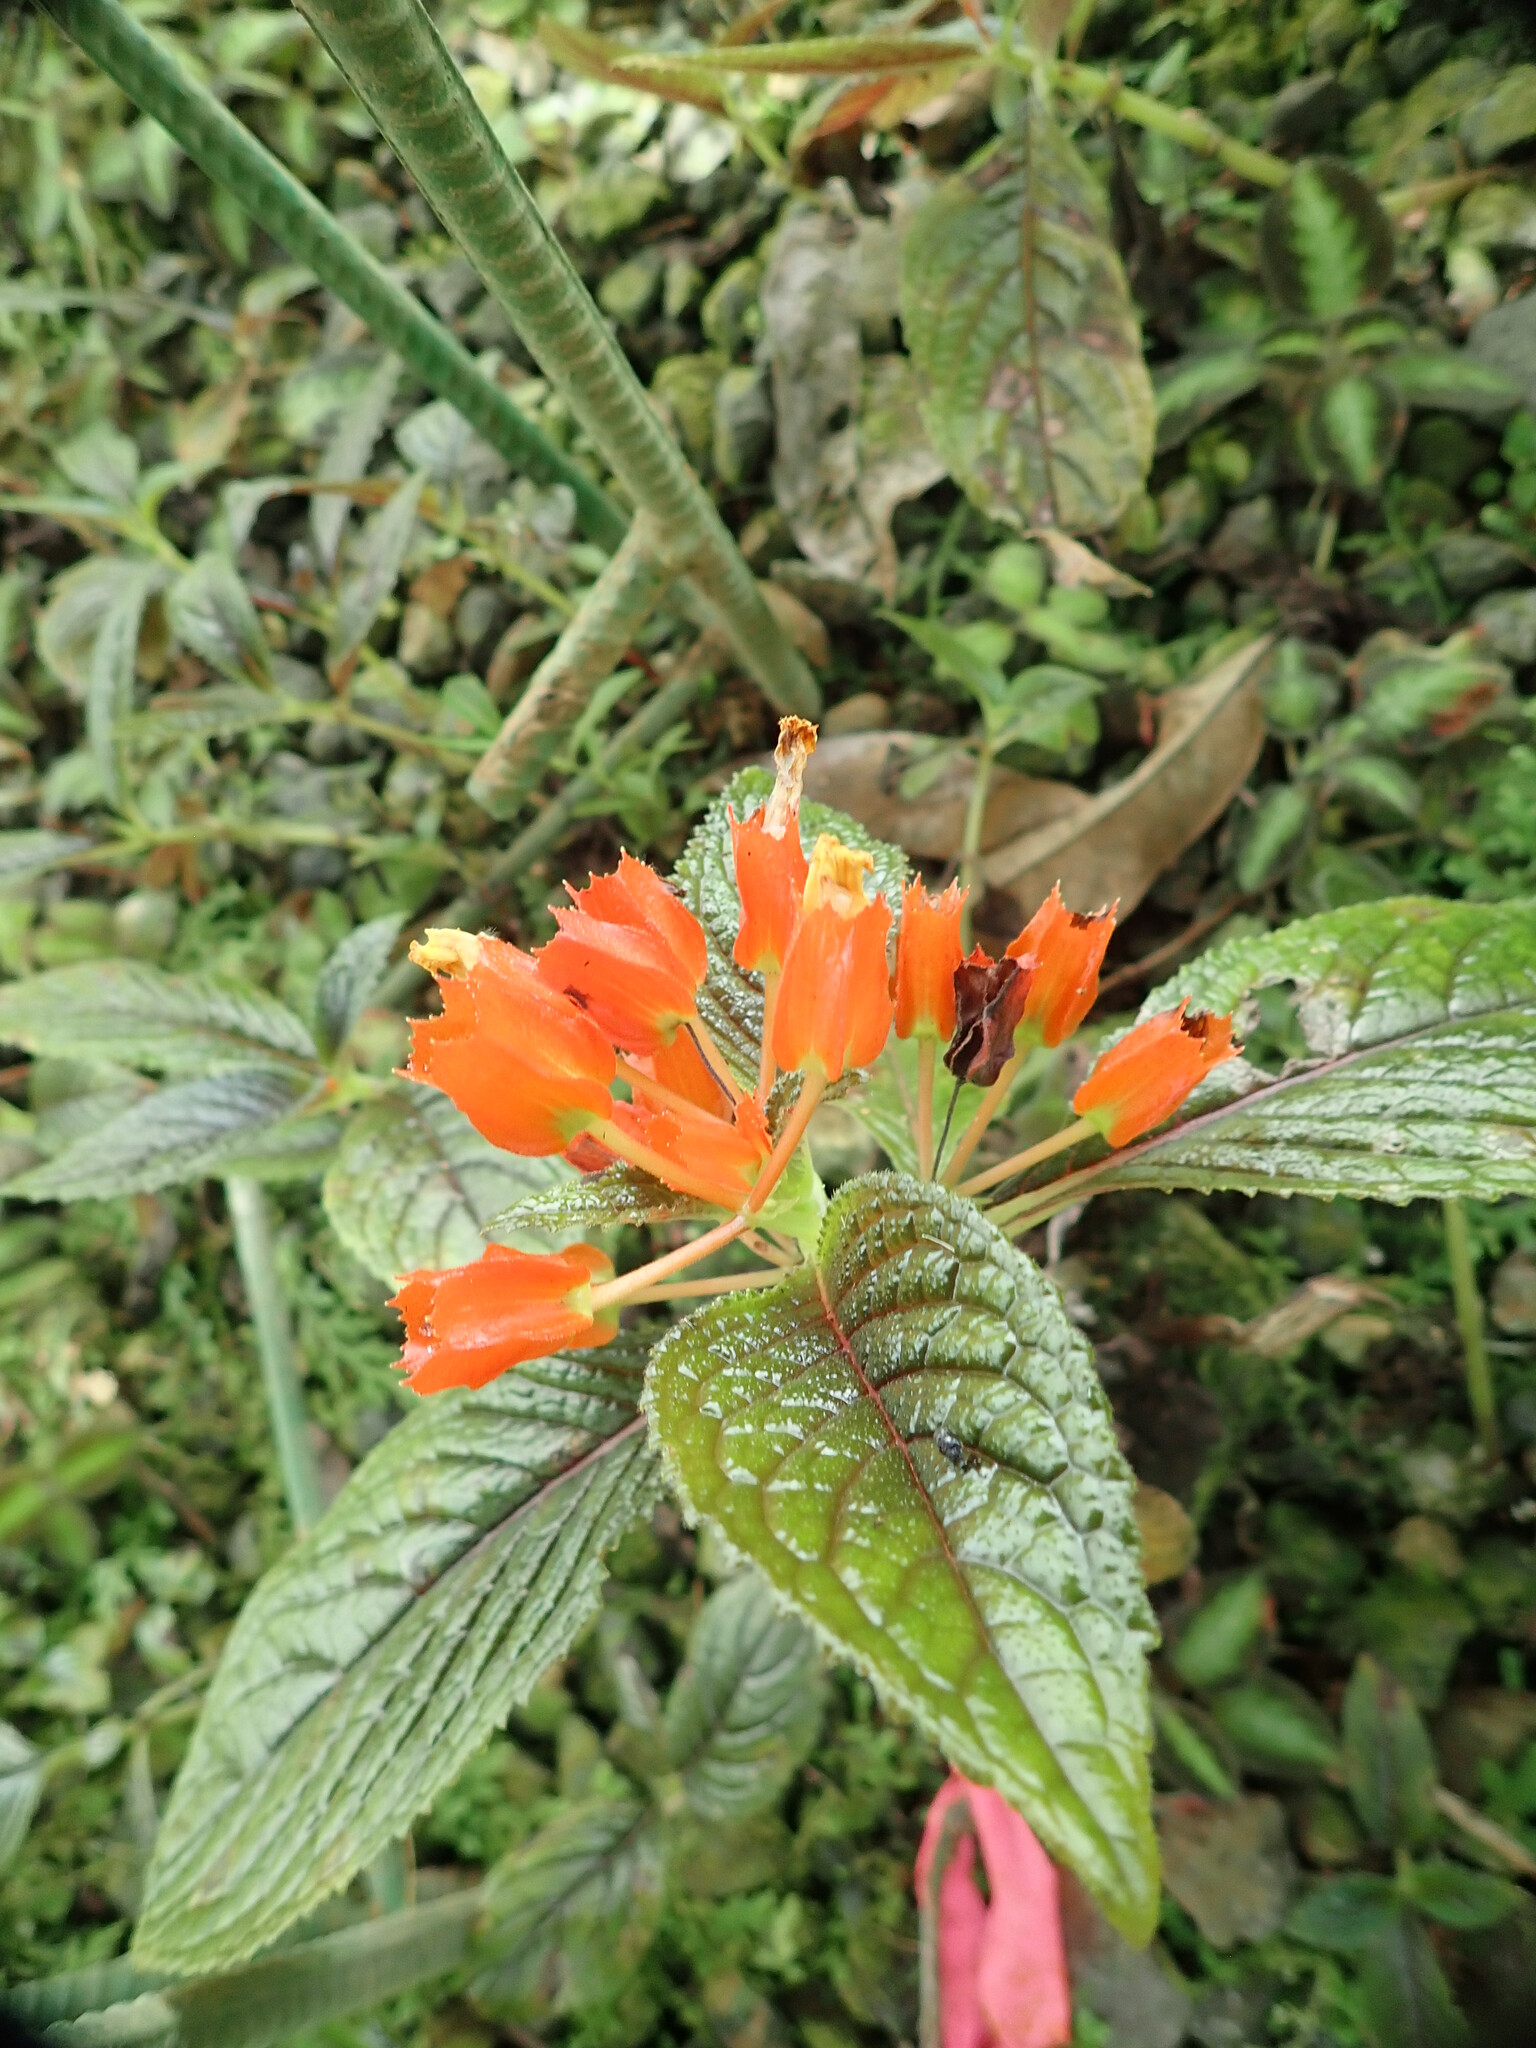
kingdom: Plantae
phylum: Tracheophyta
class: Magnoliopsida
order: Lamiales
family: Gesneriaceae
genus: Chrysothemis
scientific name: Chrysothemis pulchella
